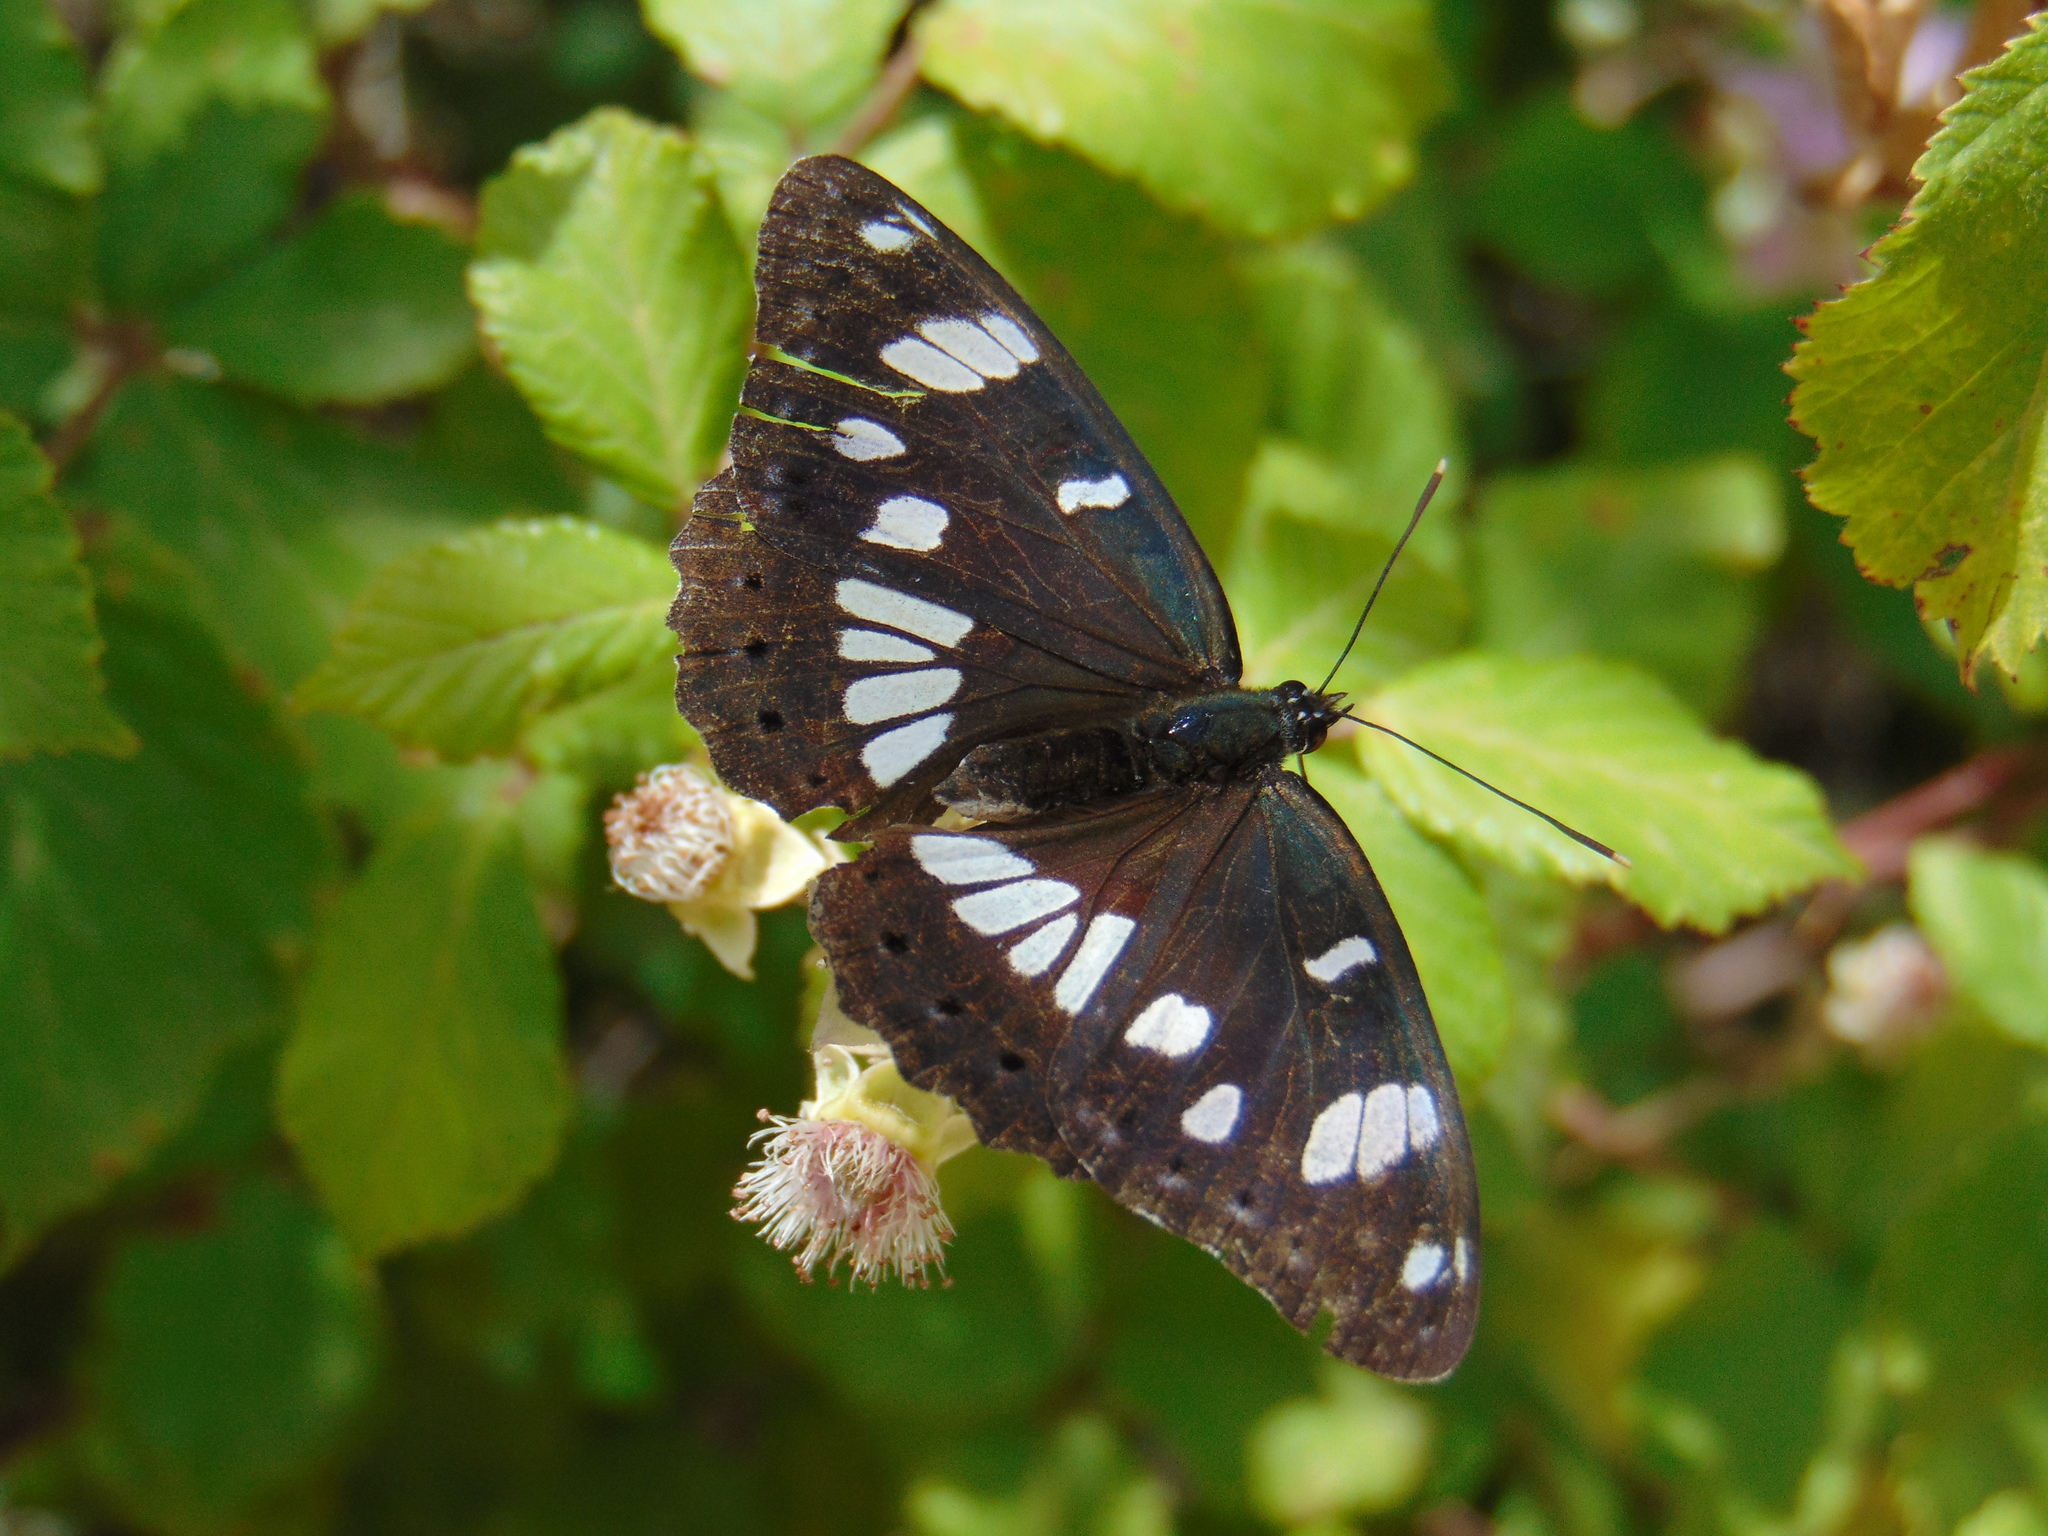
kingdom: Animalia
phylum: Arthropoda
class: Insecta
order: Lepidoptera
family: Nymphalidae
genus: Limenitis
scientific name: Limenitis reducta
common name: Southern white admiral
